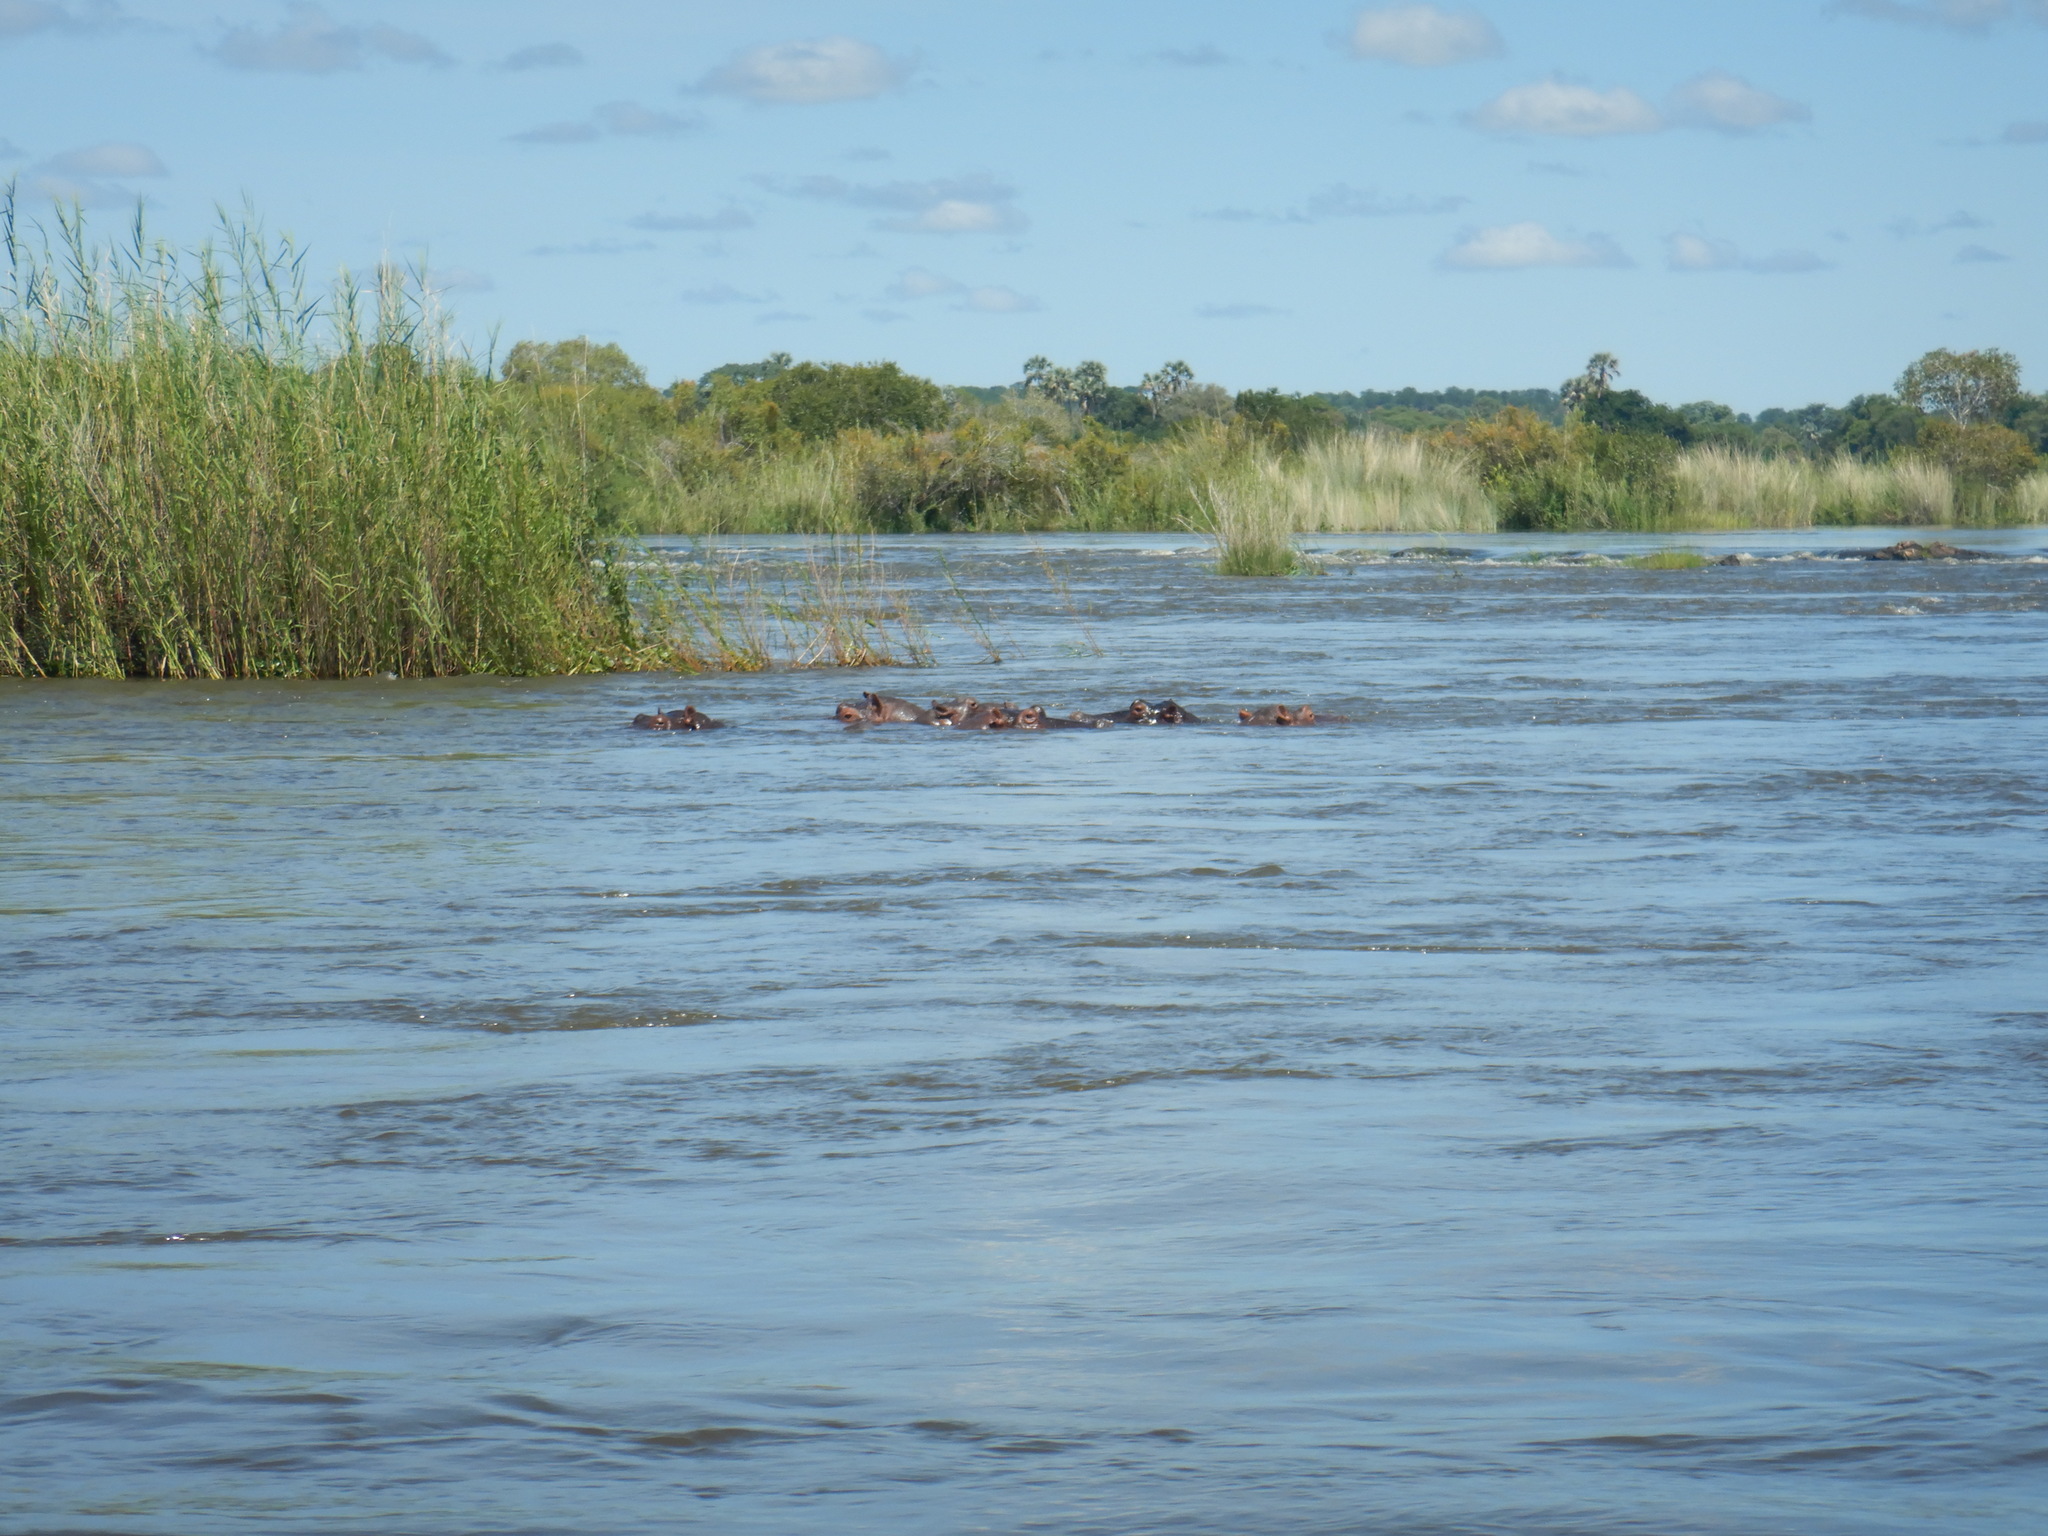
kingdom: Animalia
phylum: Chordata
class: Mammalia
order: Artiodactyla
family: Hippopotamidae
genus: Hippopotamus
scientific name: Hippopotamus amphibius
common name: Common hippopotamus
